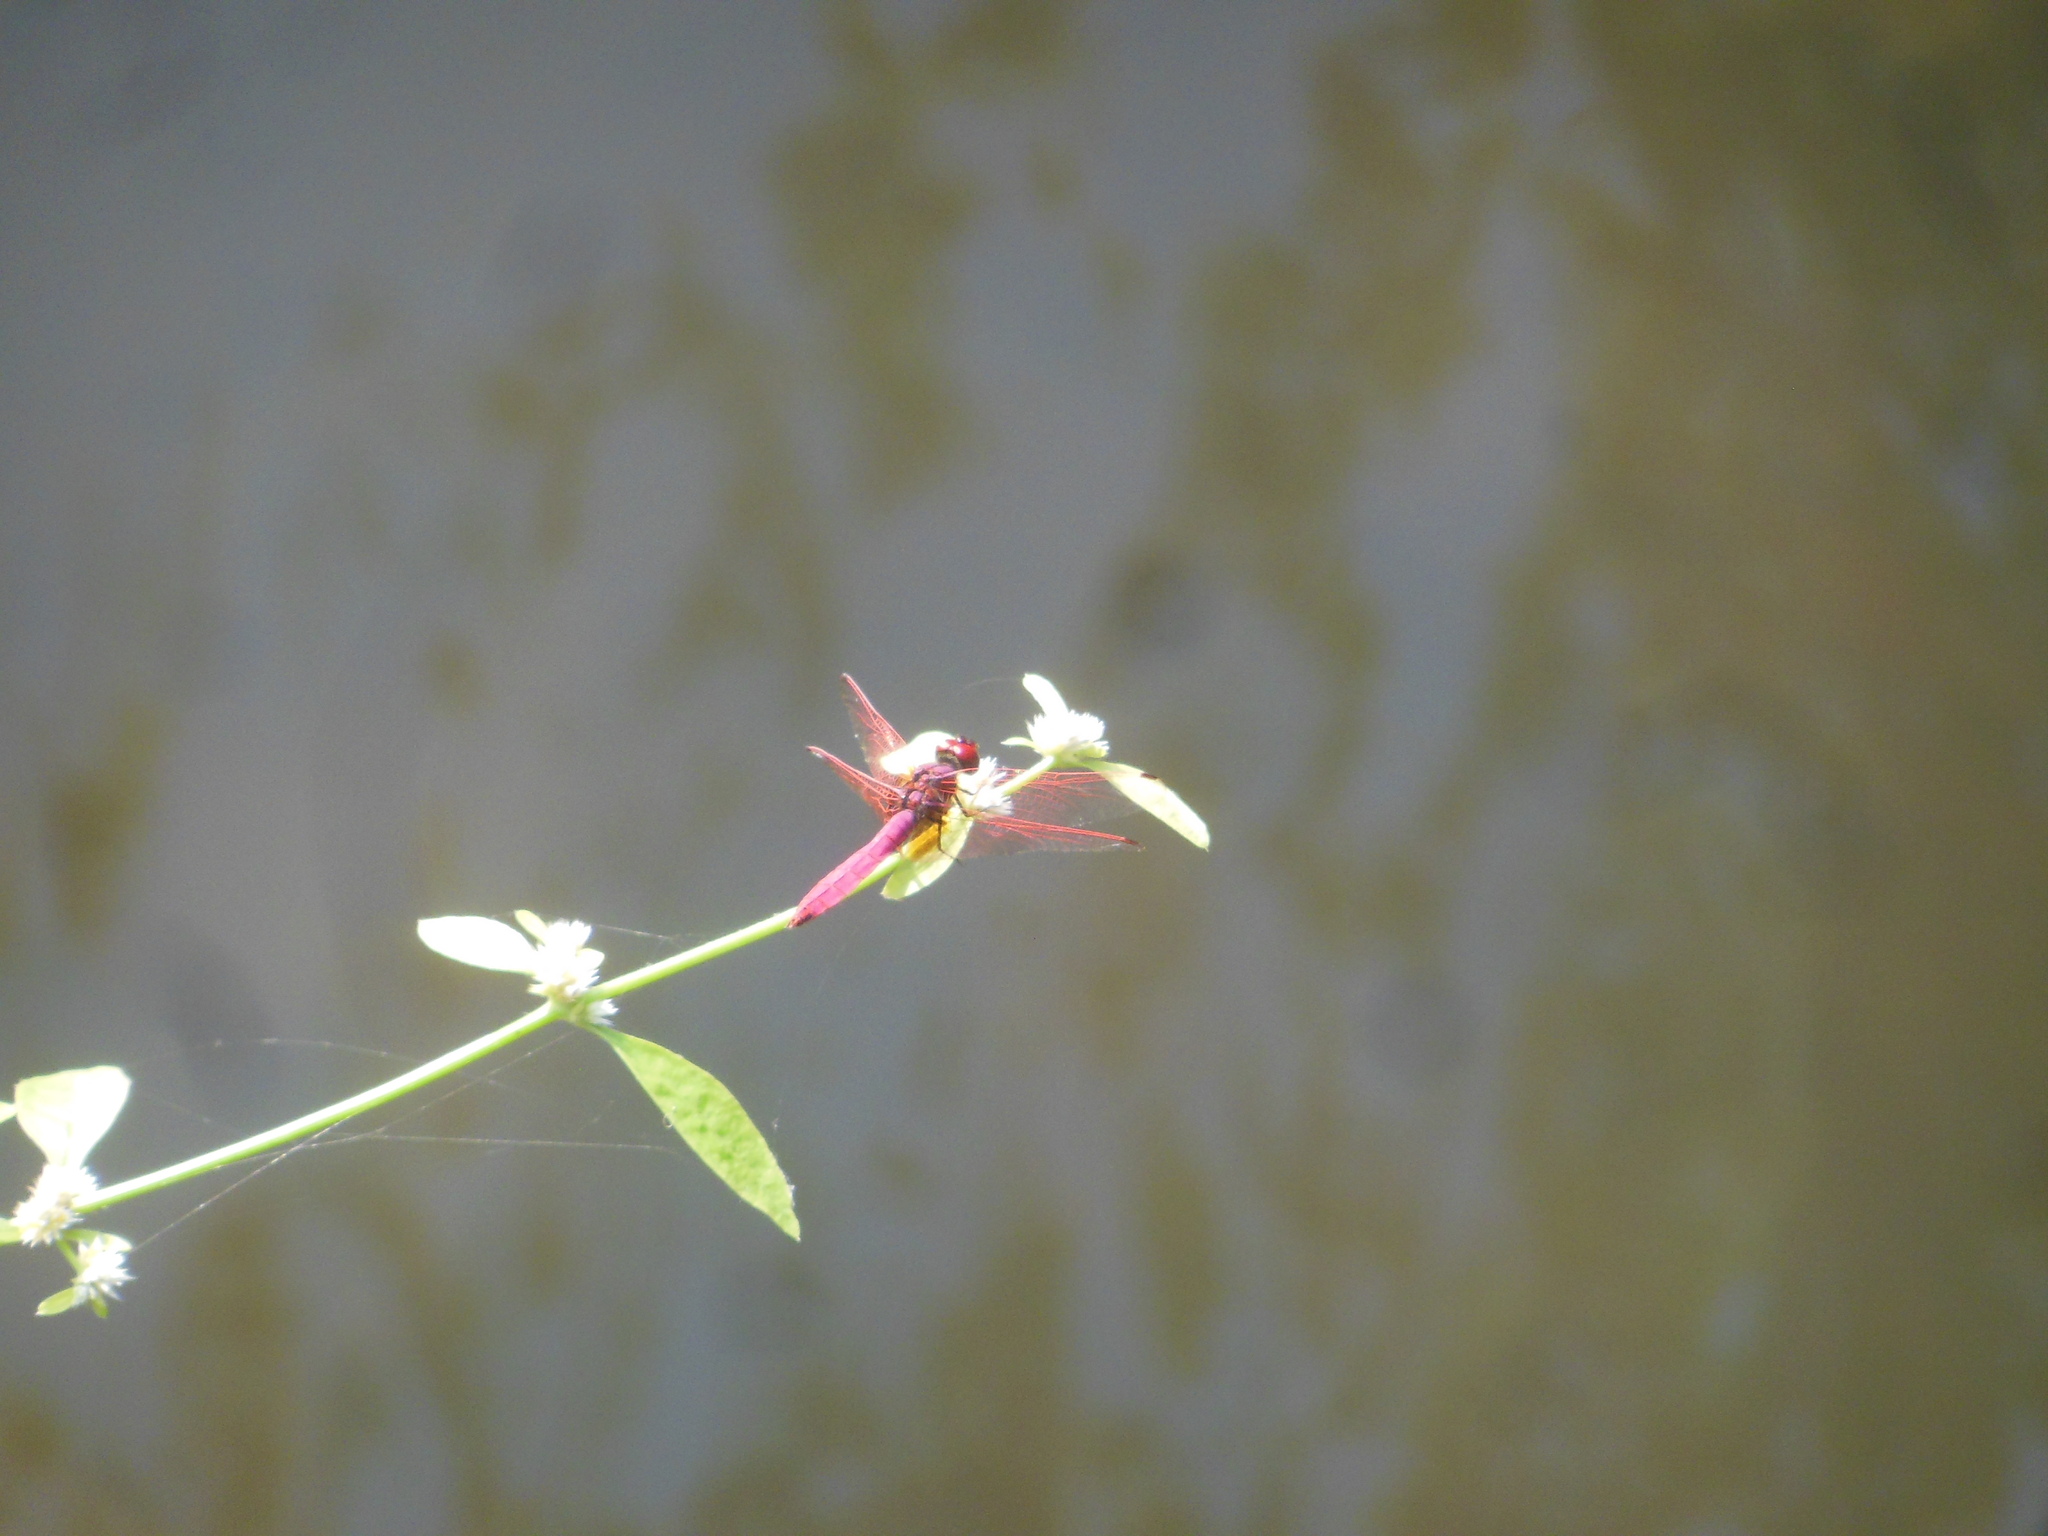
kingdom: Animalia
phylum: Arthropoda
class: Insecta
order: Odonata
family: Libellulidae
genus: Trithemis
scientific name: Trithemis aurora
